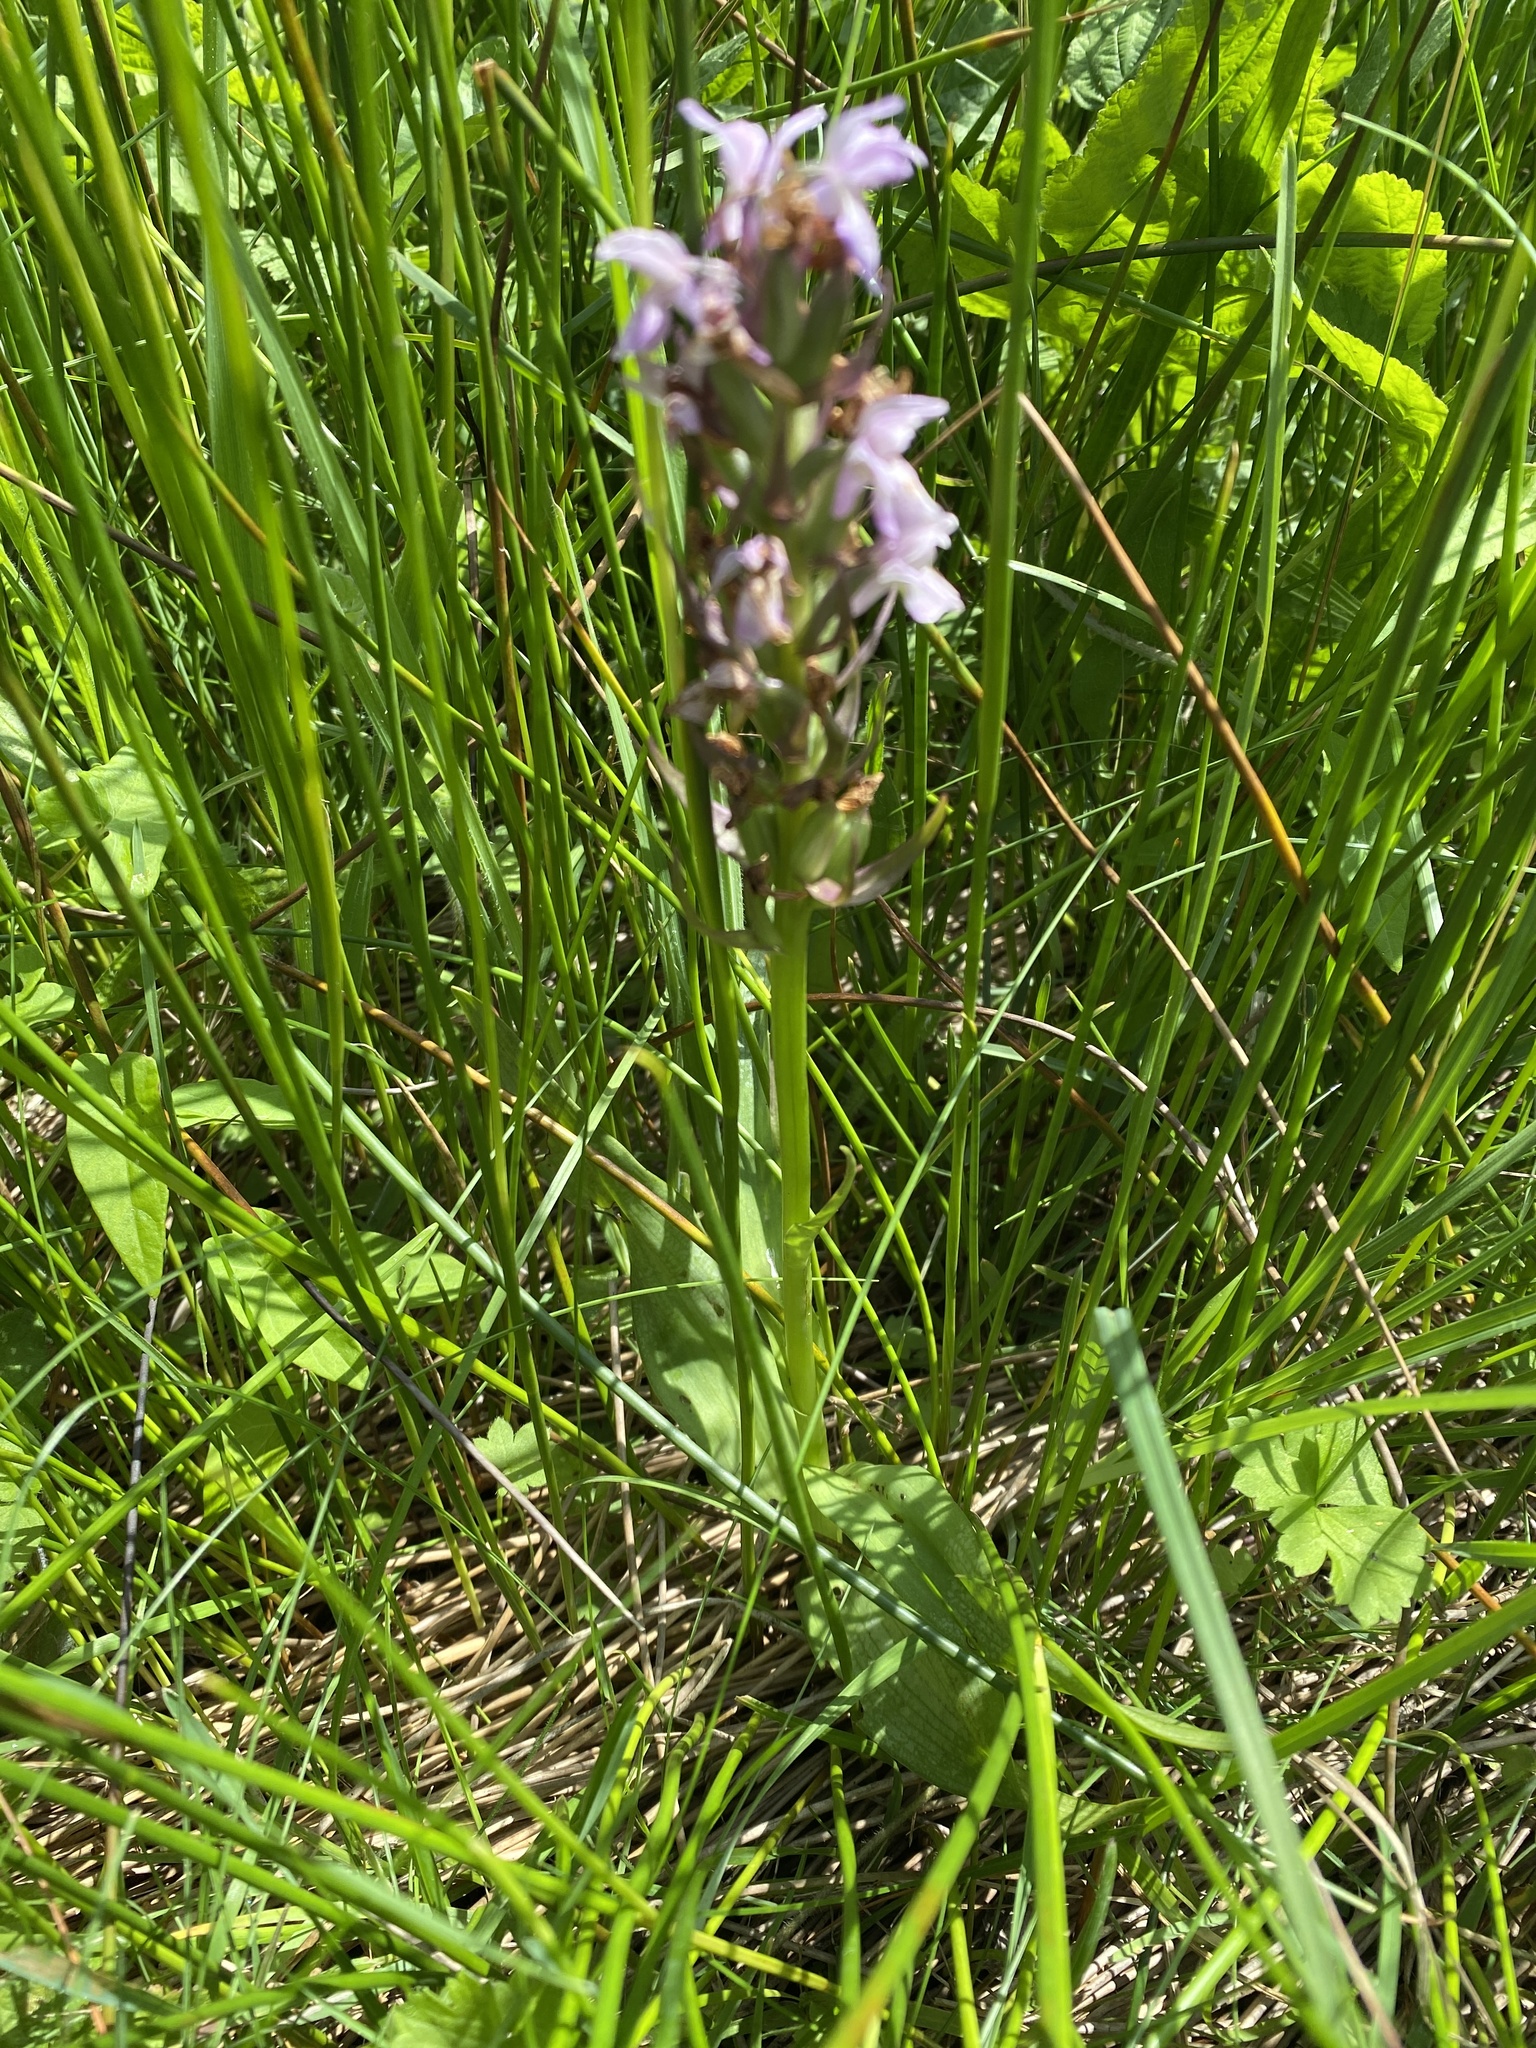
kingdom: Plantae
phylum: Tracheophyta
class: Liliopsida
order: Asparagales
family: Orchidaceae
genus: Dactylorhiza
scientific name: Dactylorhiza majalis
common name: Marsh orchid
